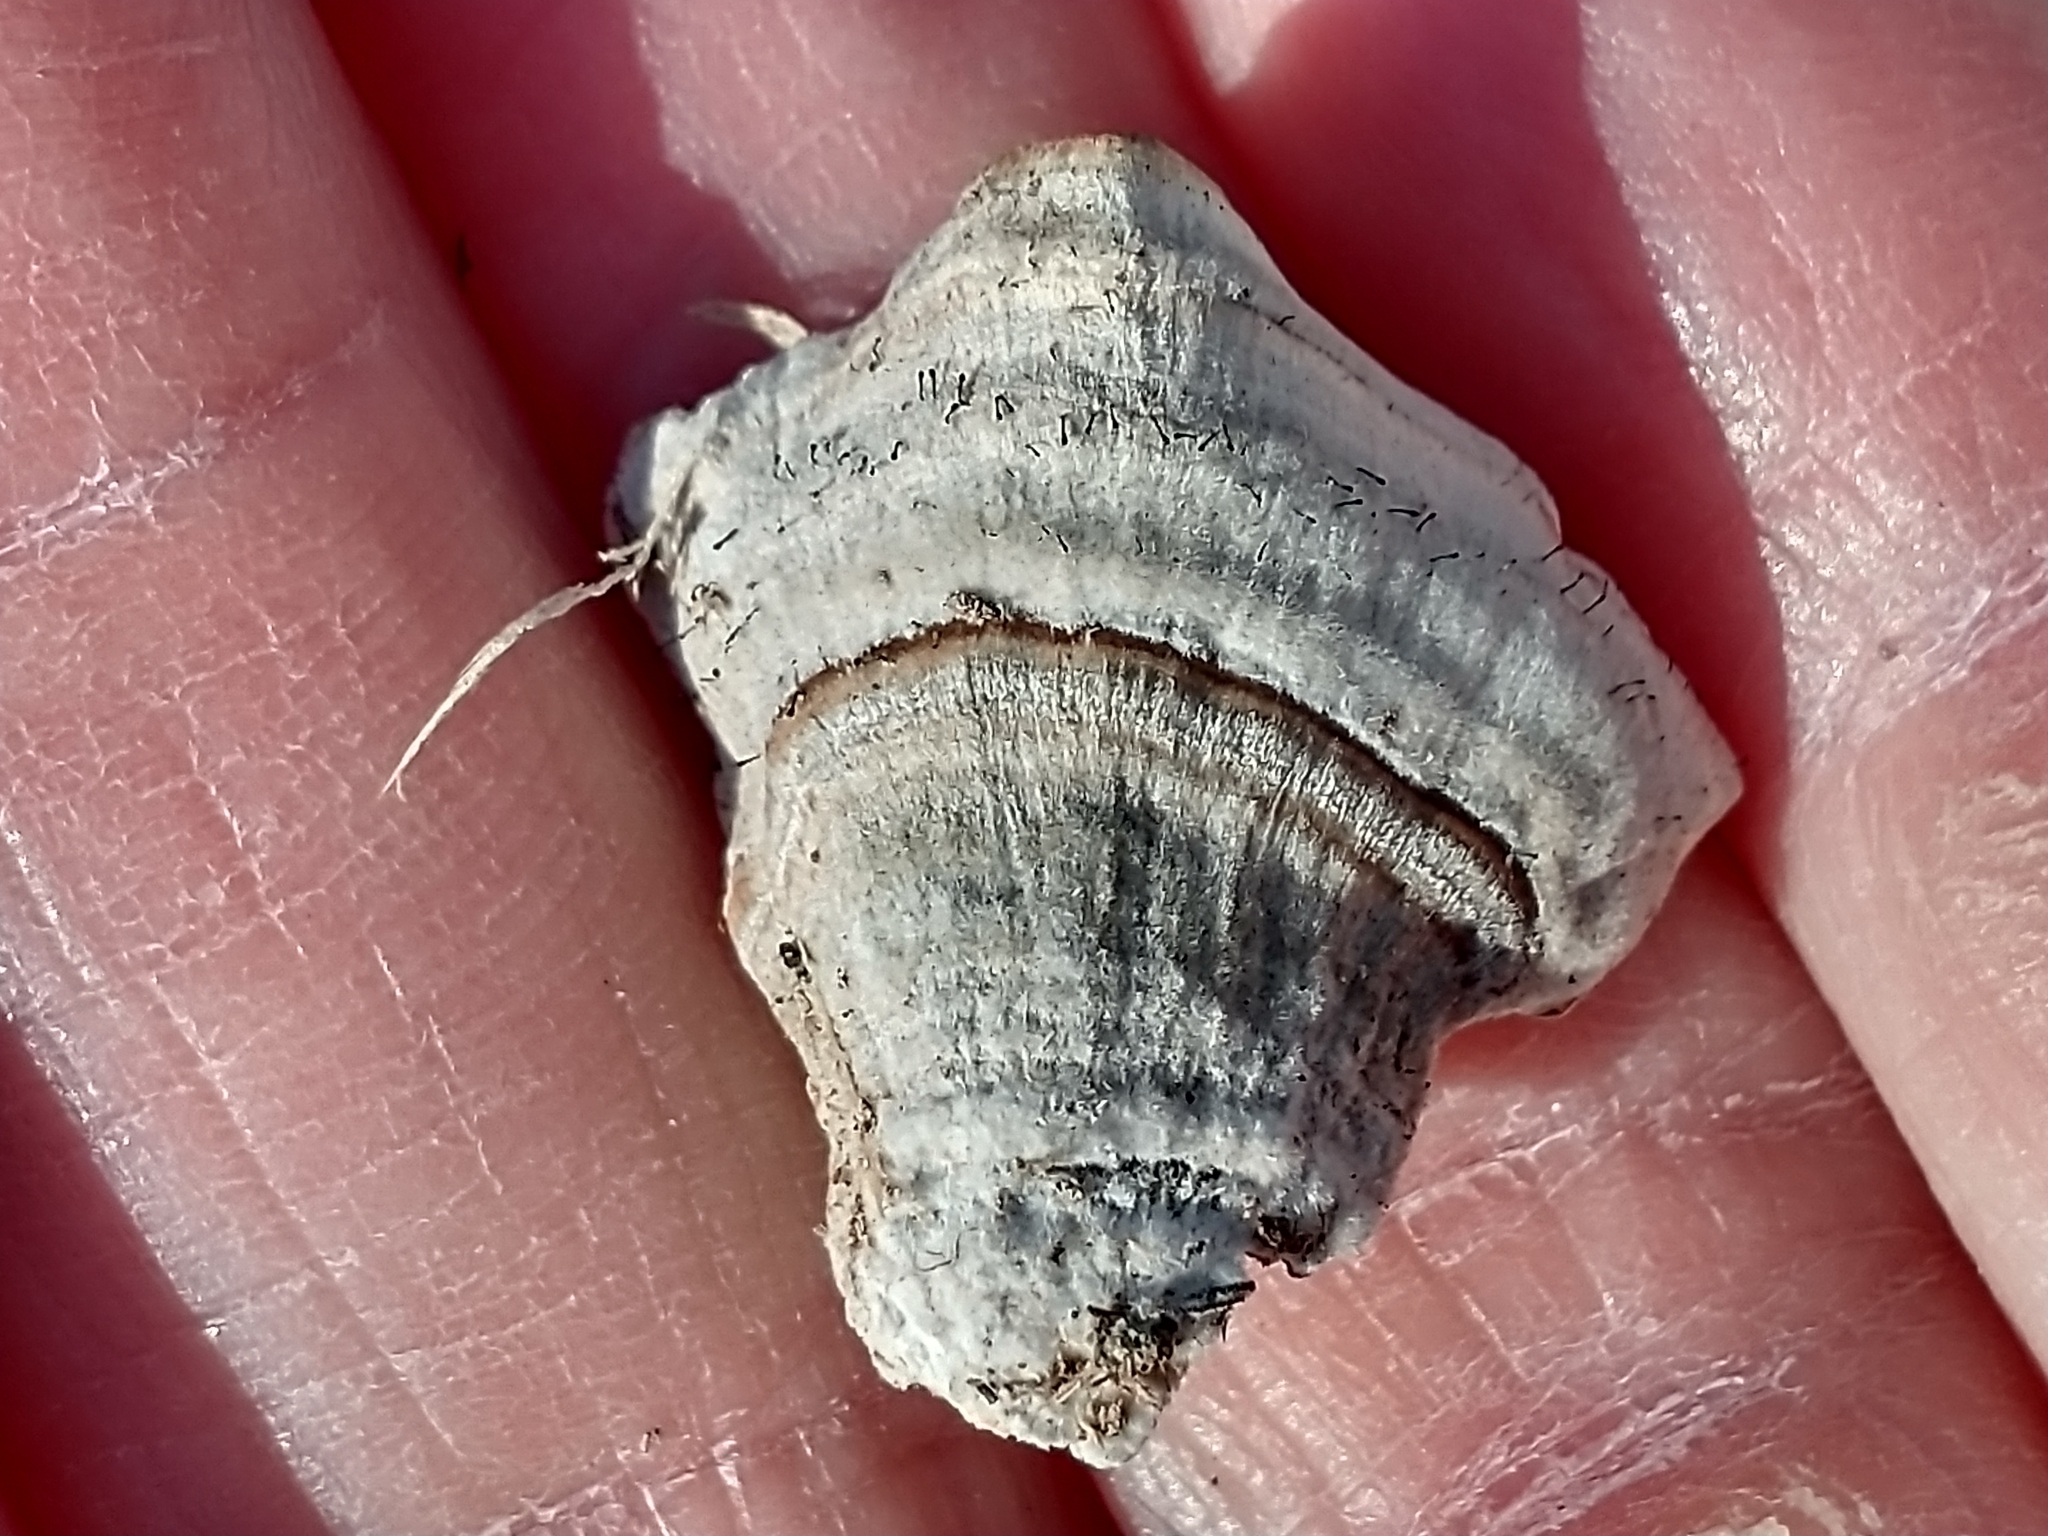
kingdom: Fungi
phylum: Basidiomycota
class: Agaricomycetes
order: Hymenochaetales
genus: Trichaptum
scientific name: Trichaptum biforme
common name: Violet-toothed polypore
